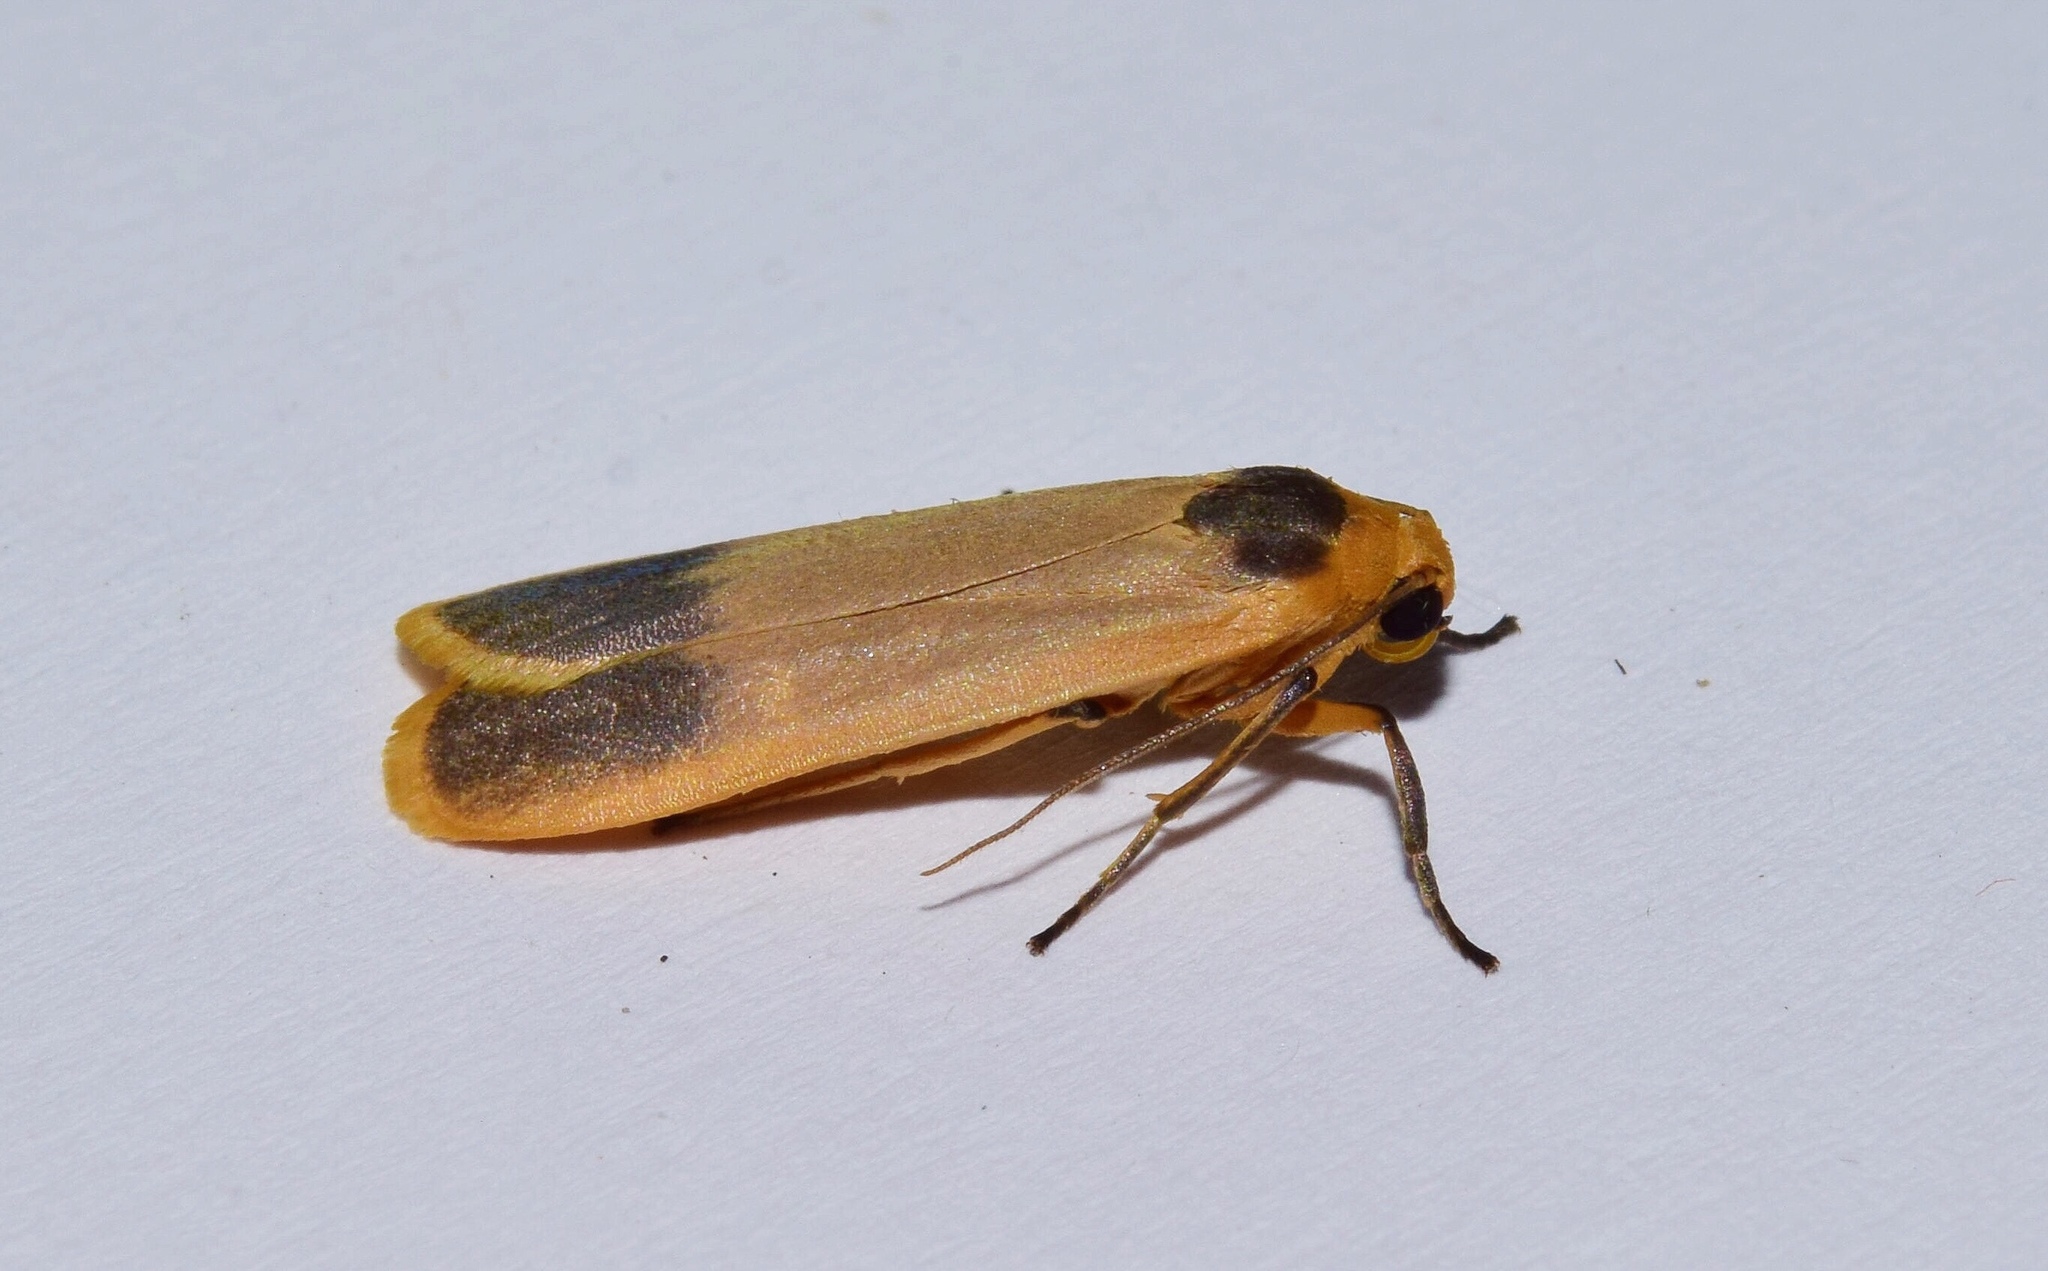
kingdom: Animalia
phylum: Arthropoda
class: Insecta
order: Lepidoptera
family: Erebidae
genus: Pseudochromatosia
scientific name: Pseudochromatosia nigrapex
